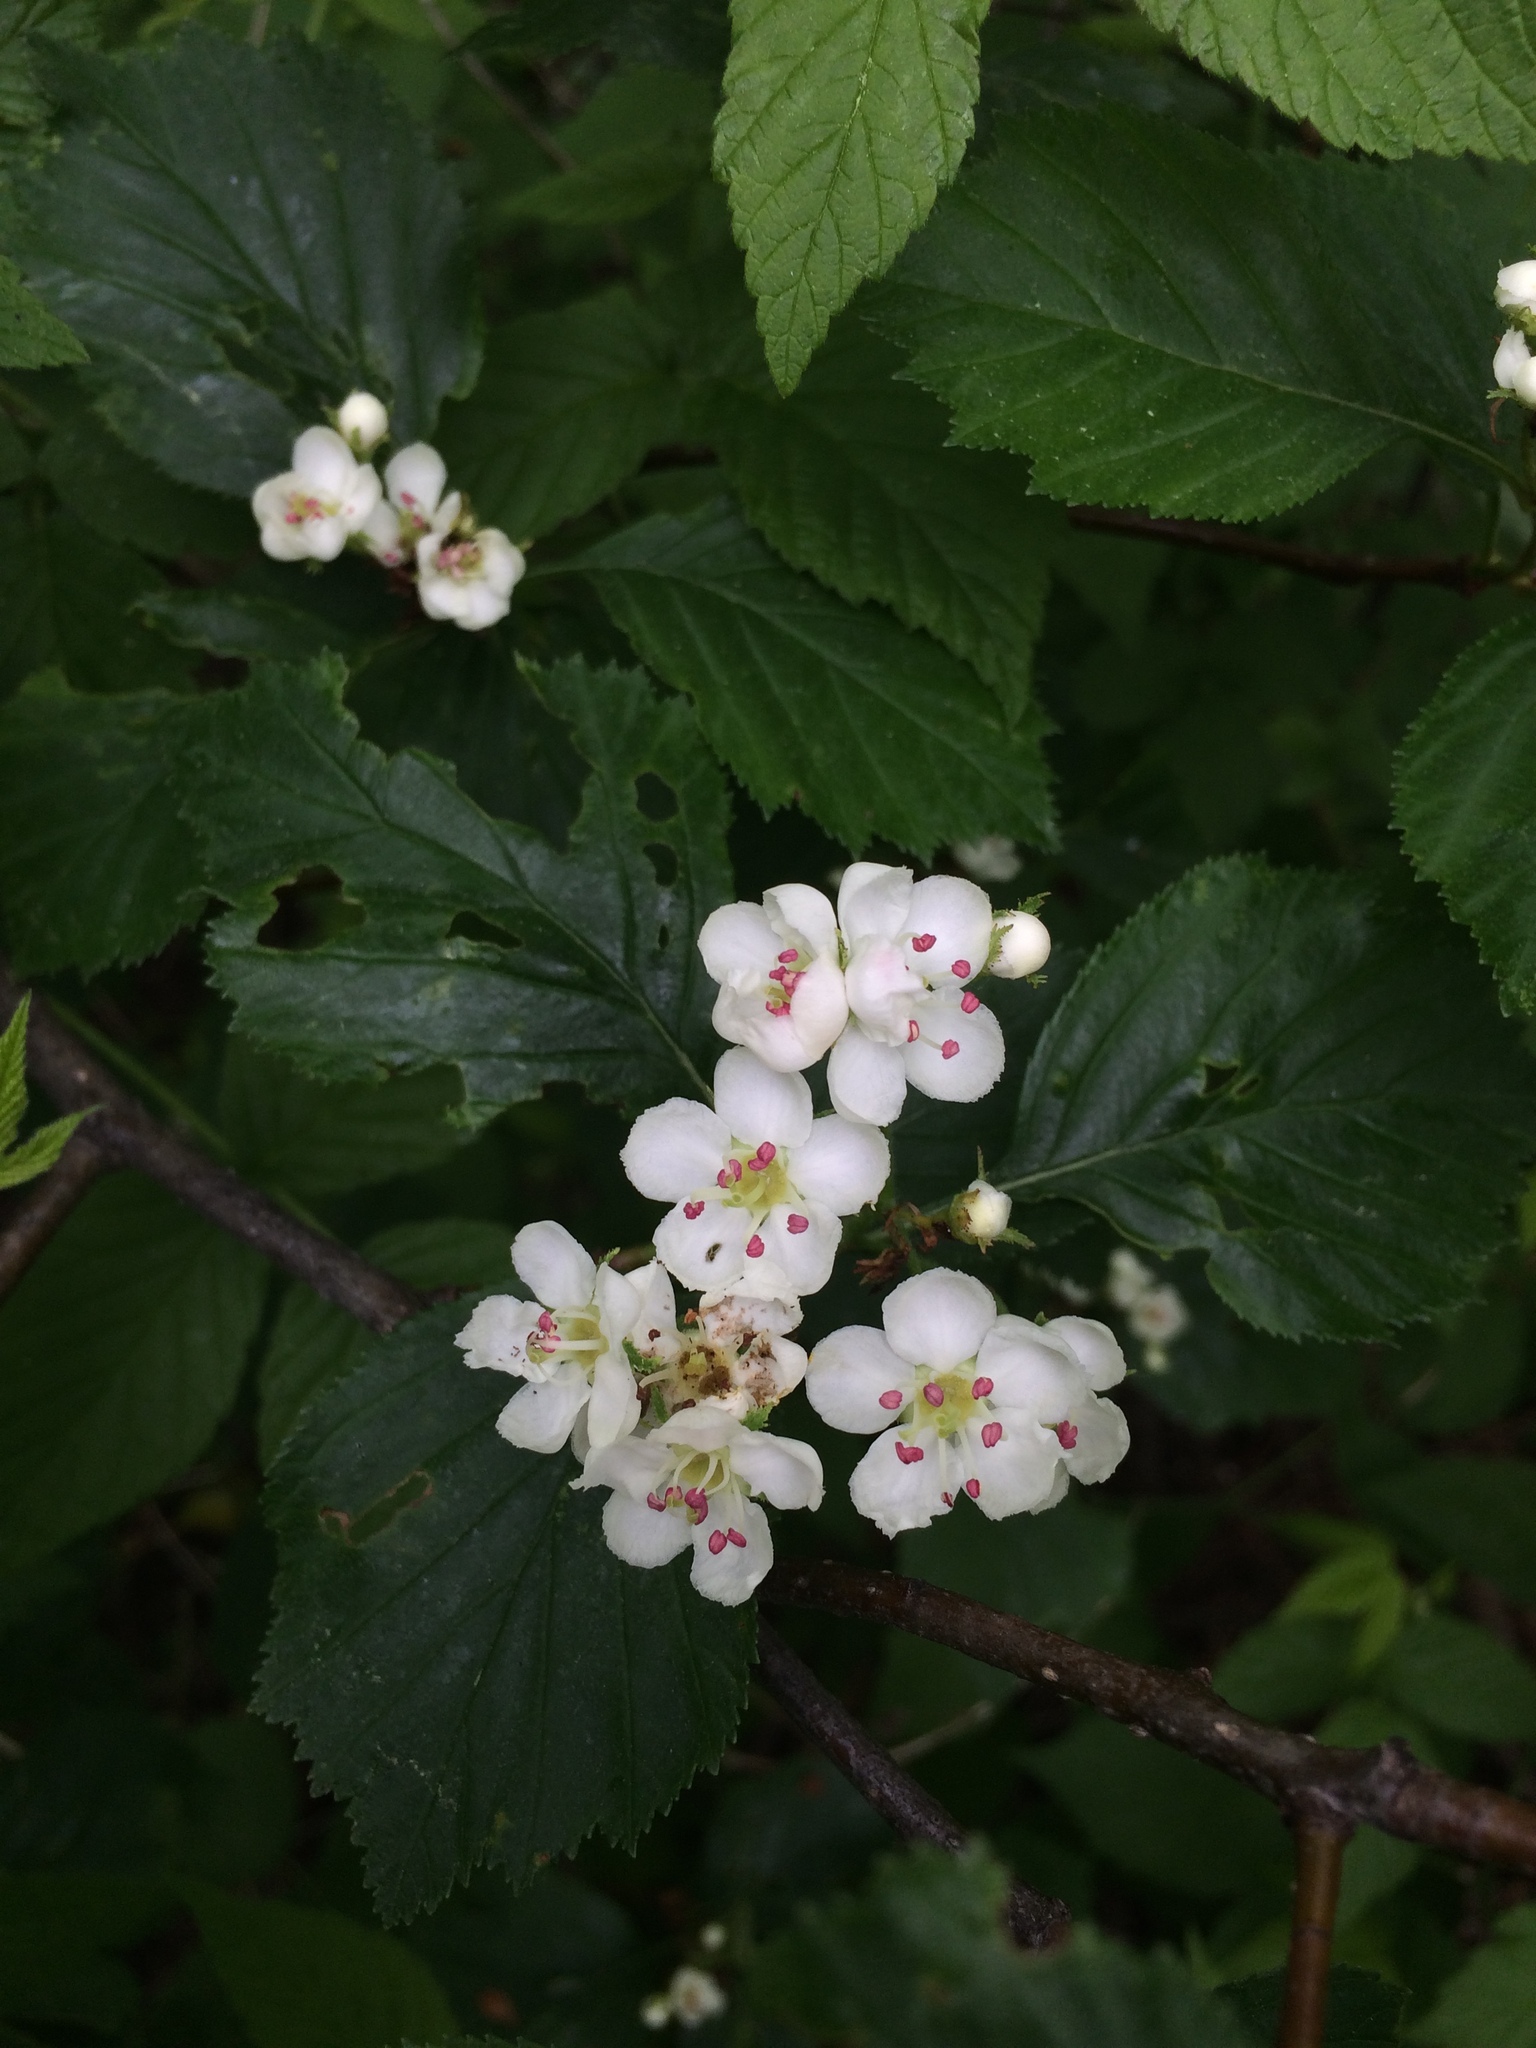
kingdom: Plantae
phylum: Tracheophyta
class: Magnoliopsida
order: Rosales
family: Rosaceae
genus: Crataegus
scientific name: Crataegus macracantha
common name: Large-thorn hawthorn
